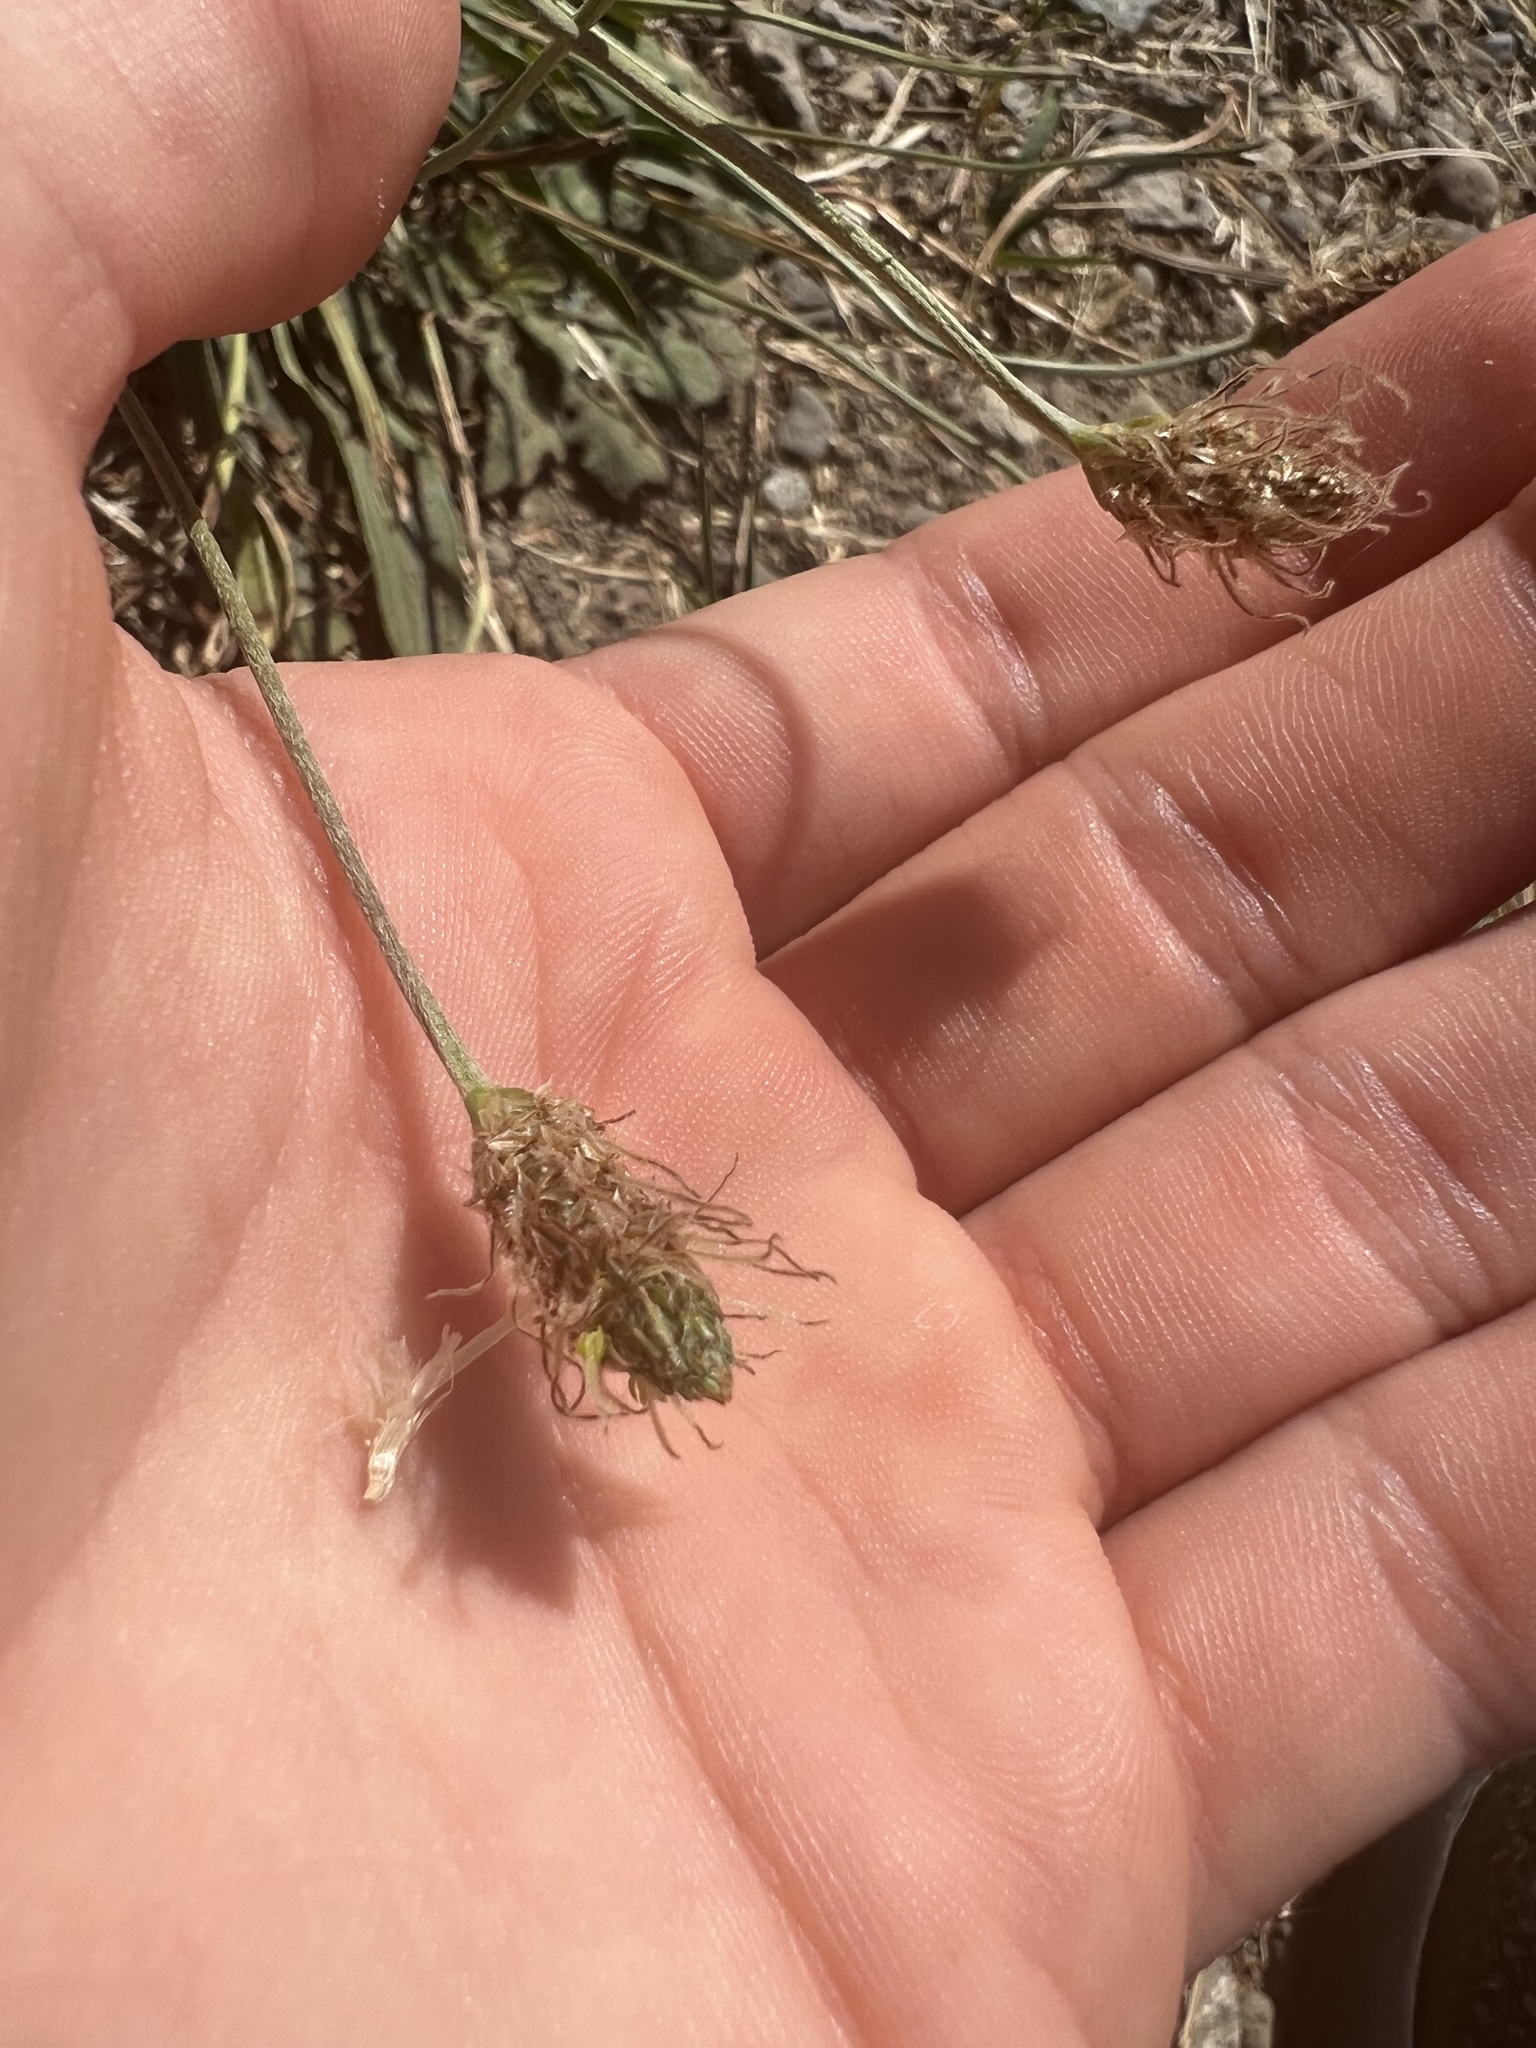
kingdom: Plantae
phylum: Tracheophyta
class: Magnoliopsida
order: Lamiales
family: Plantaginaceae
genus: Plantago
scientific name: Plantago lanceolata
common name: Ribwort plantain
